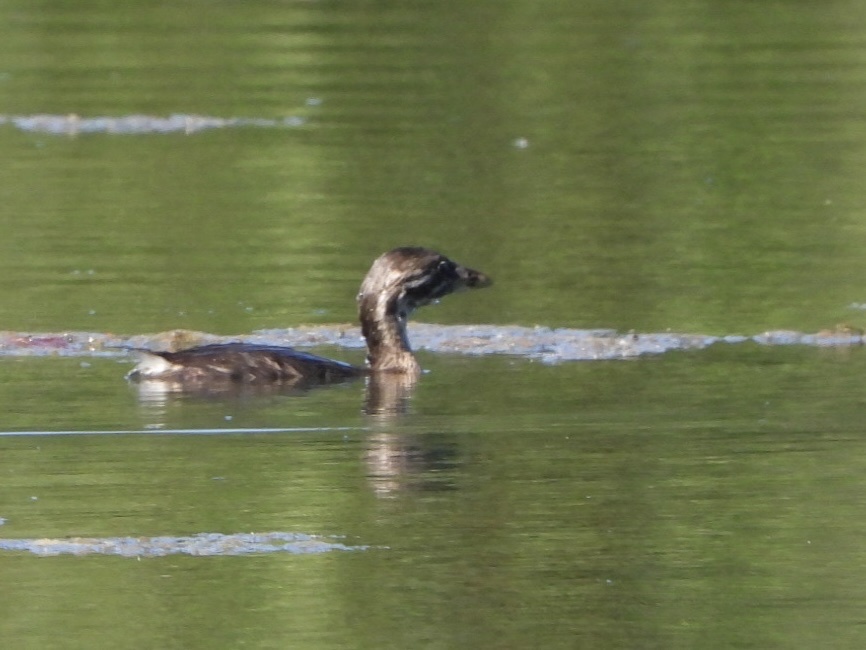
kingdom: Animalia
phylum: Chordata
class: Aves
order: Podicipediformes
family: Podicipedidae
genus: Podilymbus
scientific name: Podilymbus podiceps
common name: Pied-billed grebe
